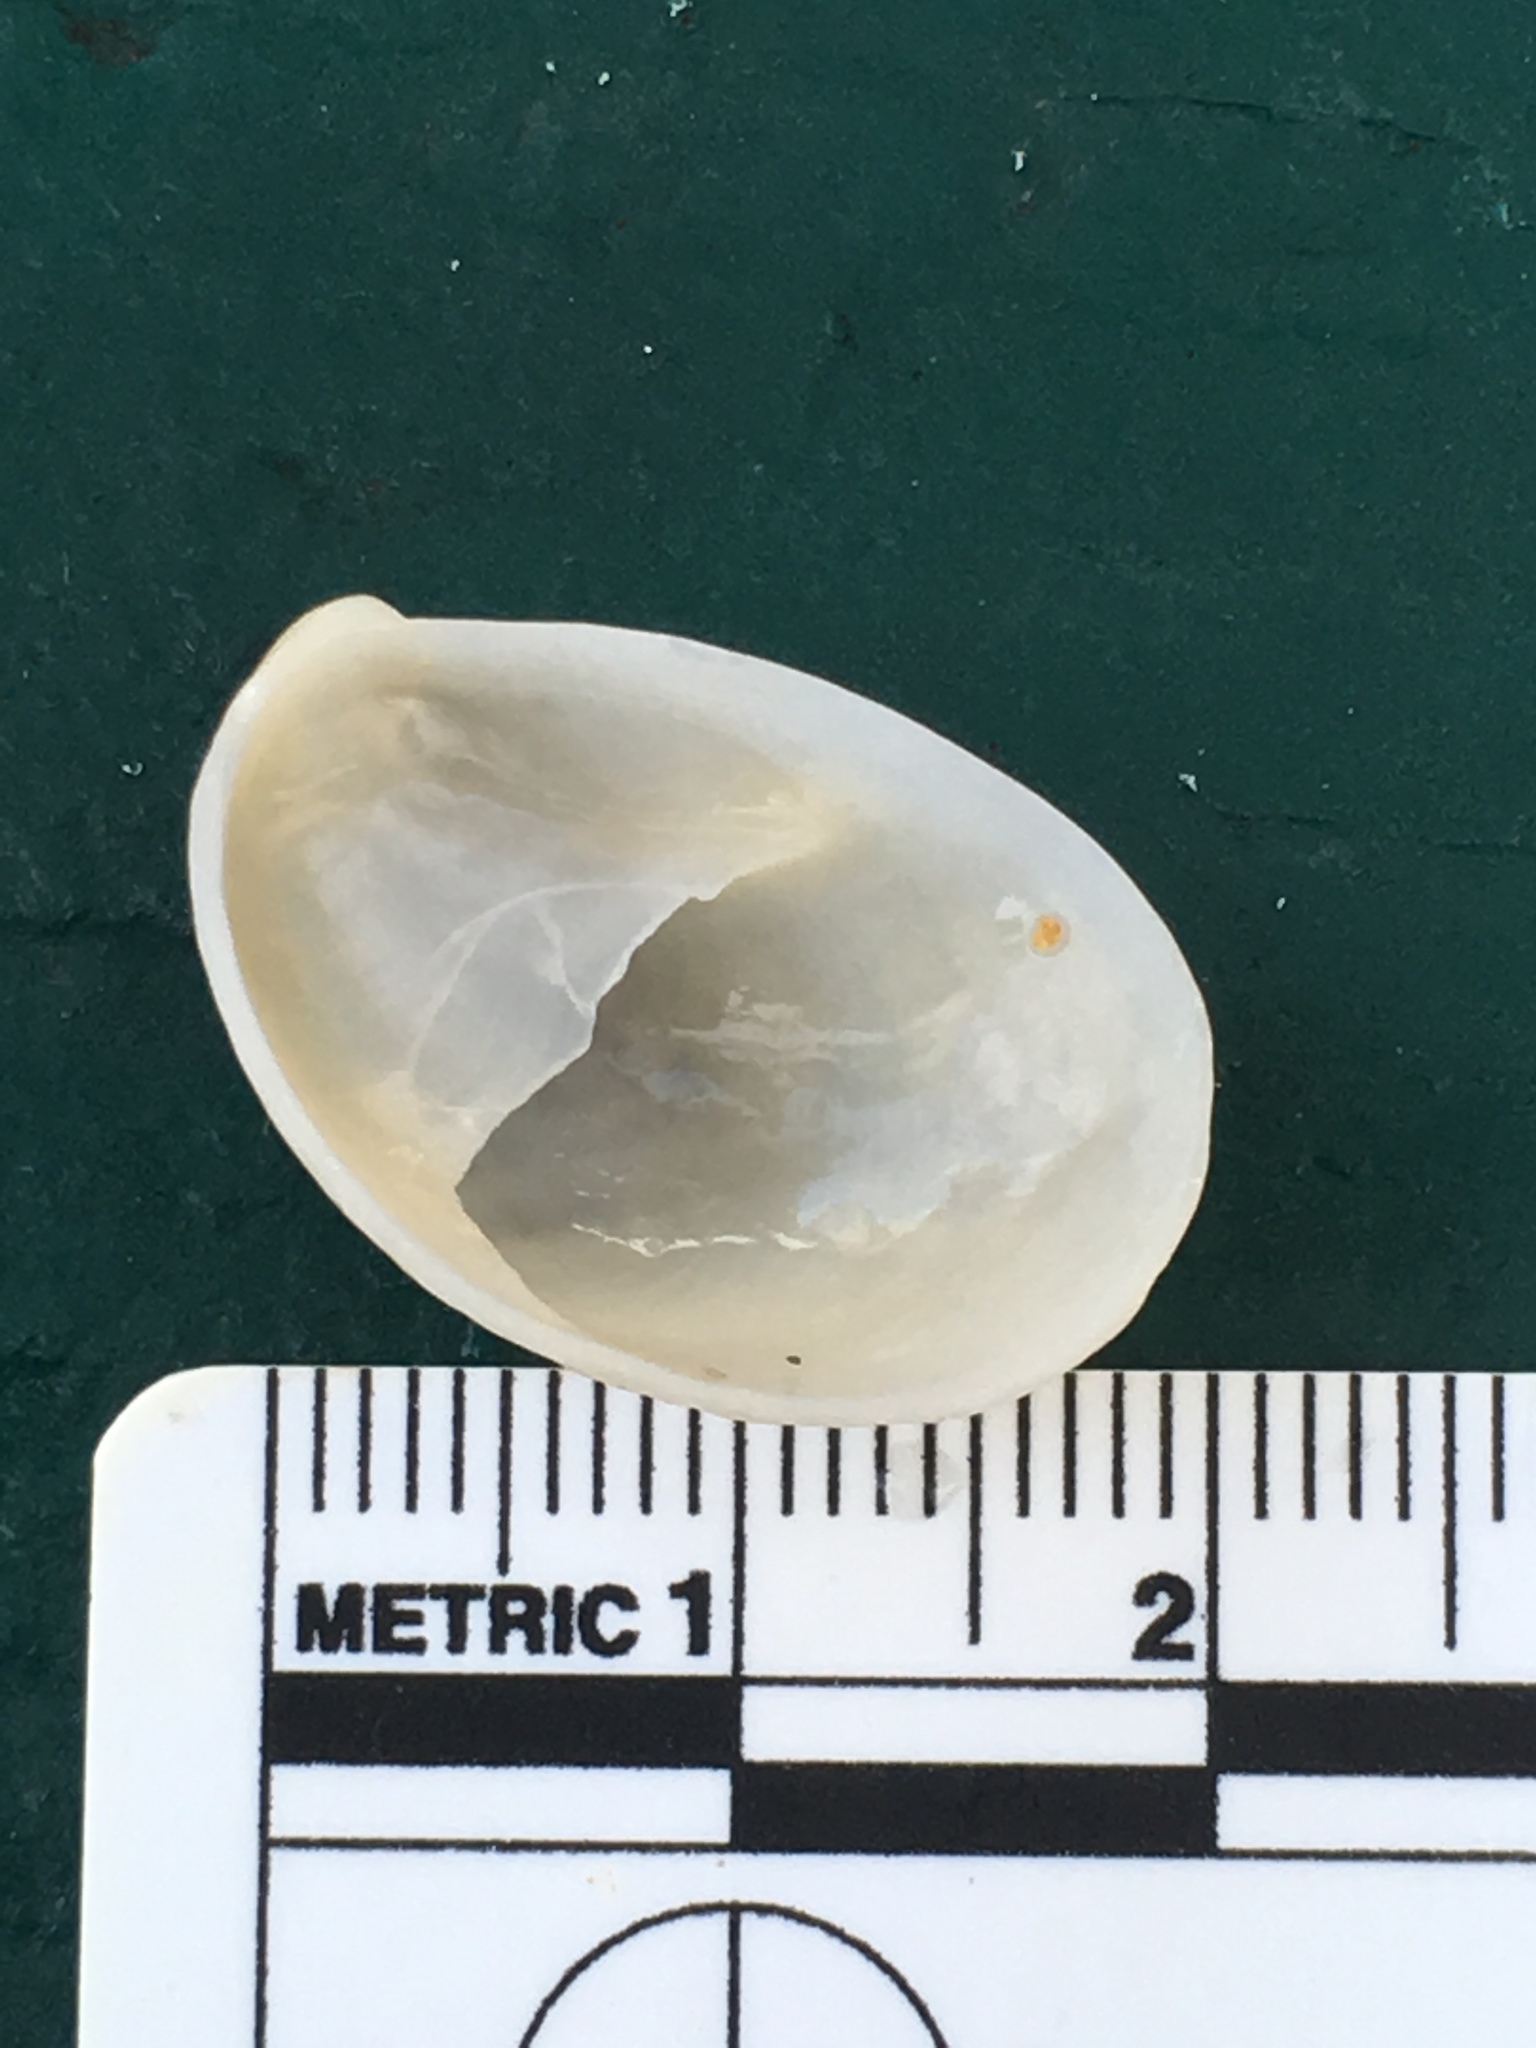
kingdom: Animalia
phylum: Mollusca
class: Gastropoda
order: Littorinimorpha
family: Calyptraeidae
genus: Crepidula
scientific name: Crepidula fornicata
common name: Slipper limpet
